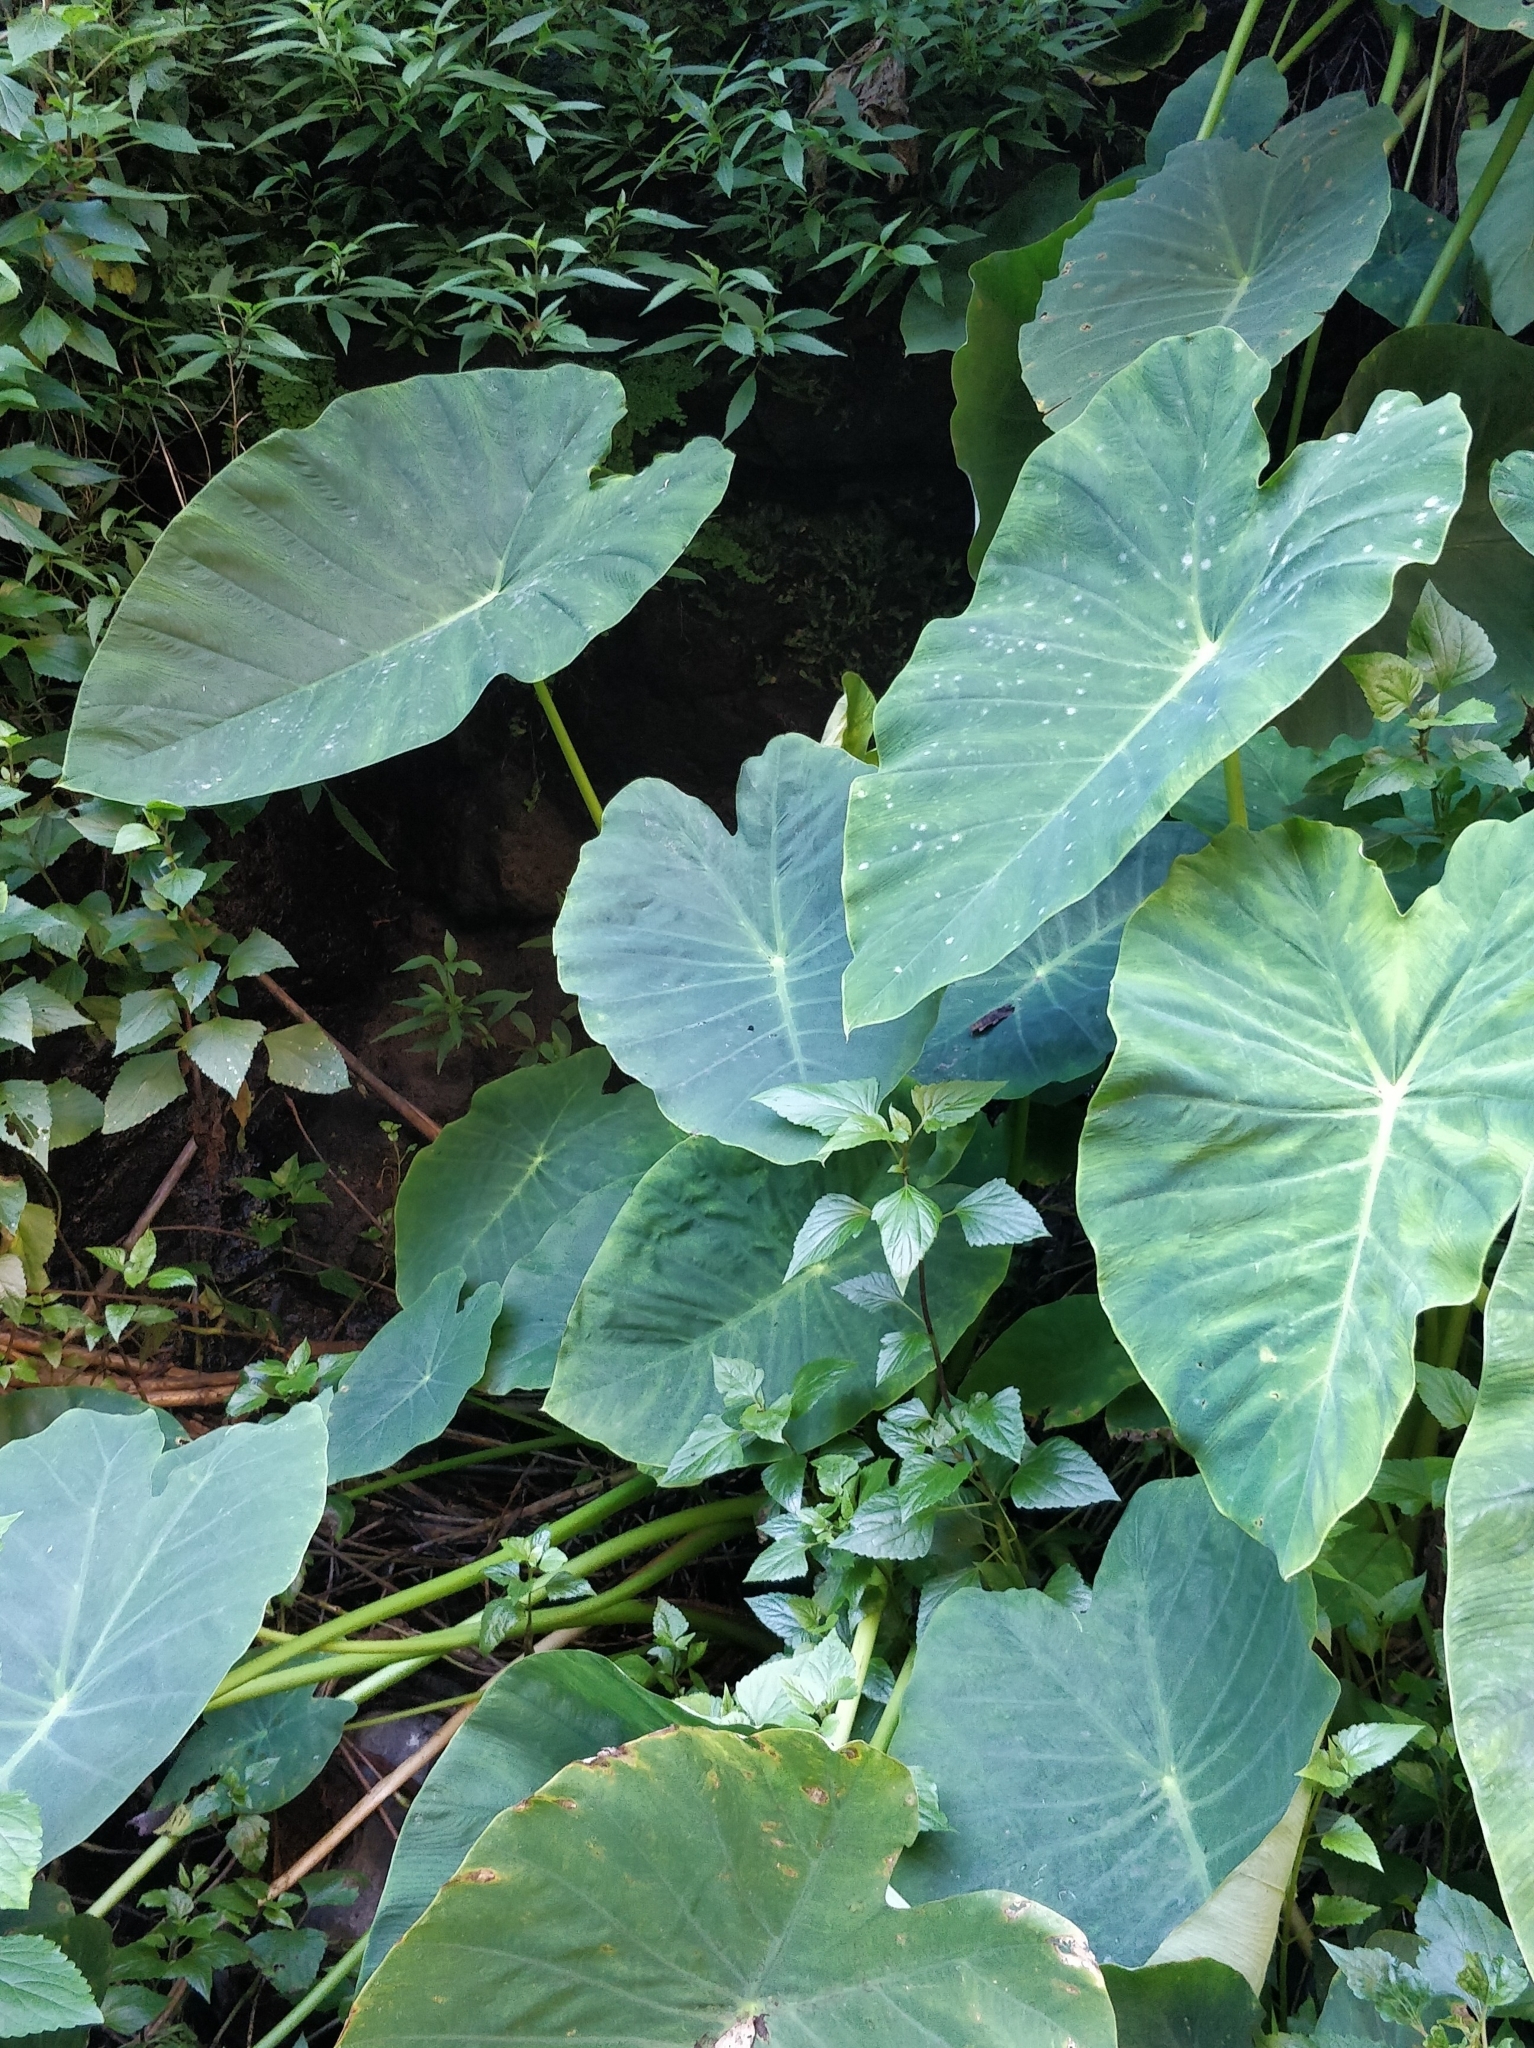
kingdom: Plantae
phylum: Tracheophyta
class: Liliopsida
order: Alismatales
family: Araceae
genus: Colocasia
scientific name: Colocasia esculenta
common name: Taro
